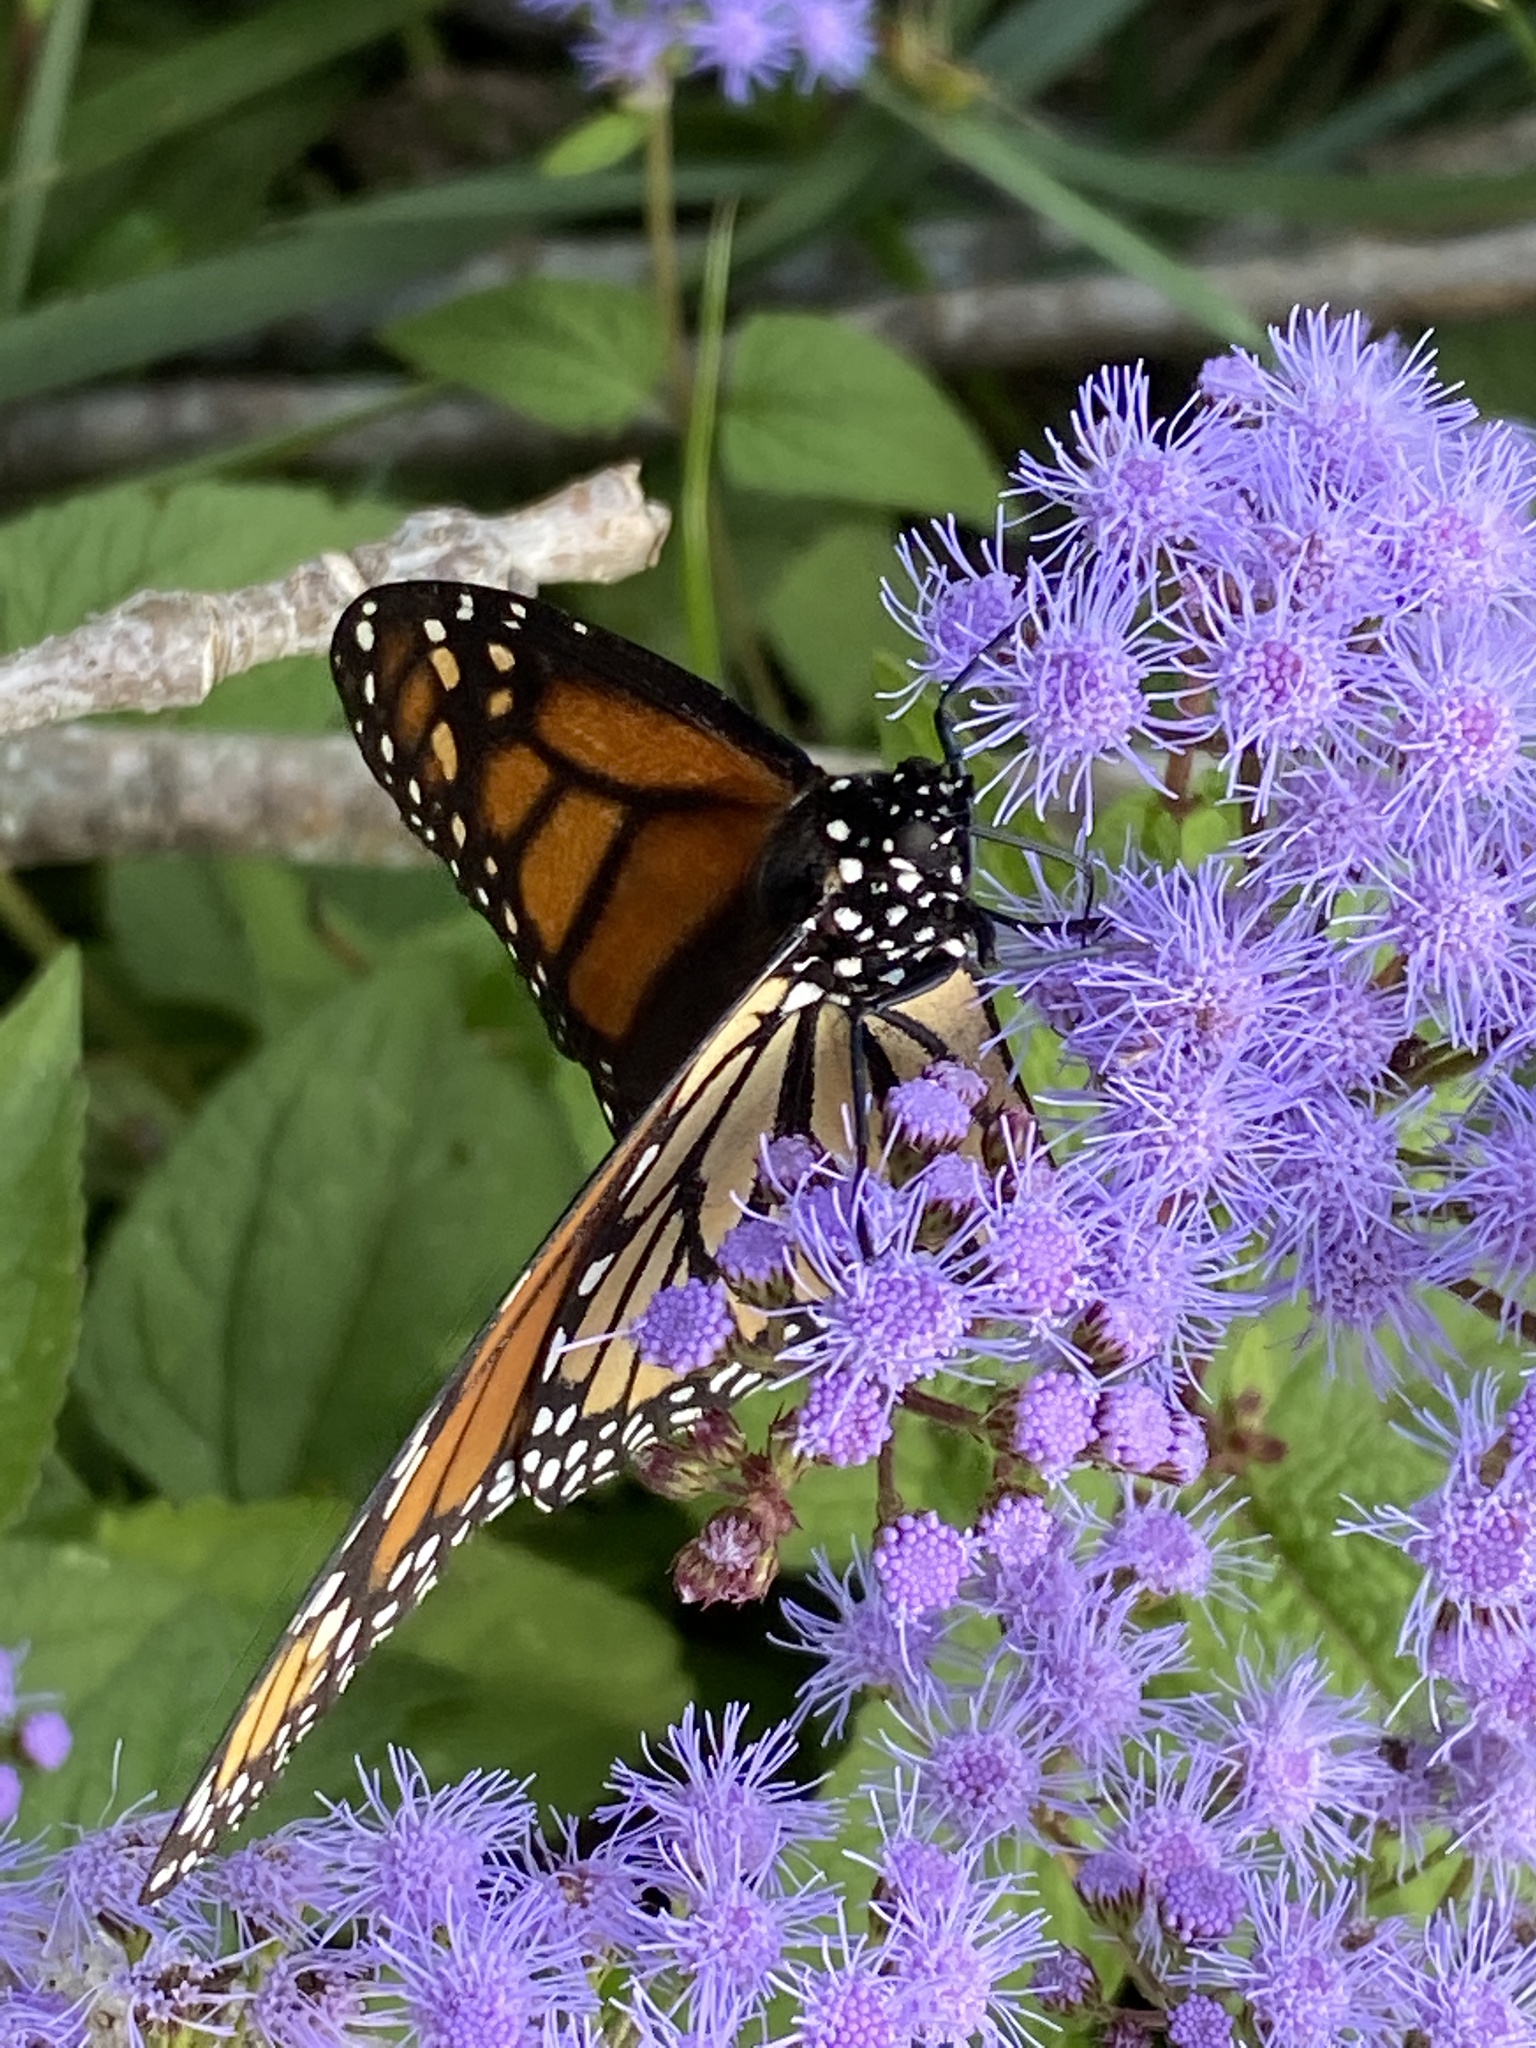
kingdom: Animalia
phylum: Arthropoda
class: Insecta
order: Lepidoptera
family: Nymphalidae
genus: Danaus
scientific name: Danaus plexippus
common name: Monarch
